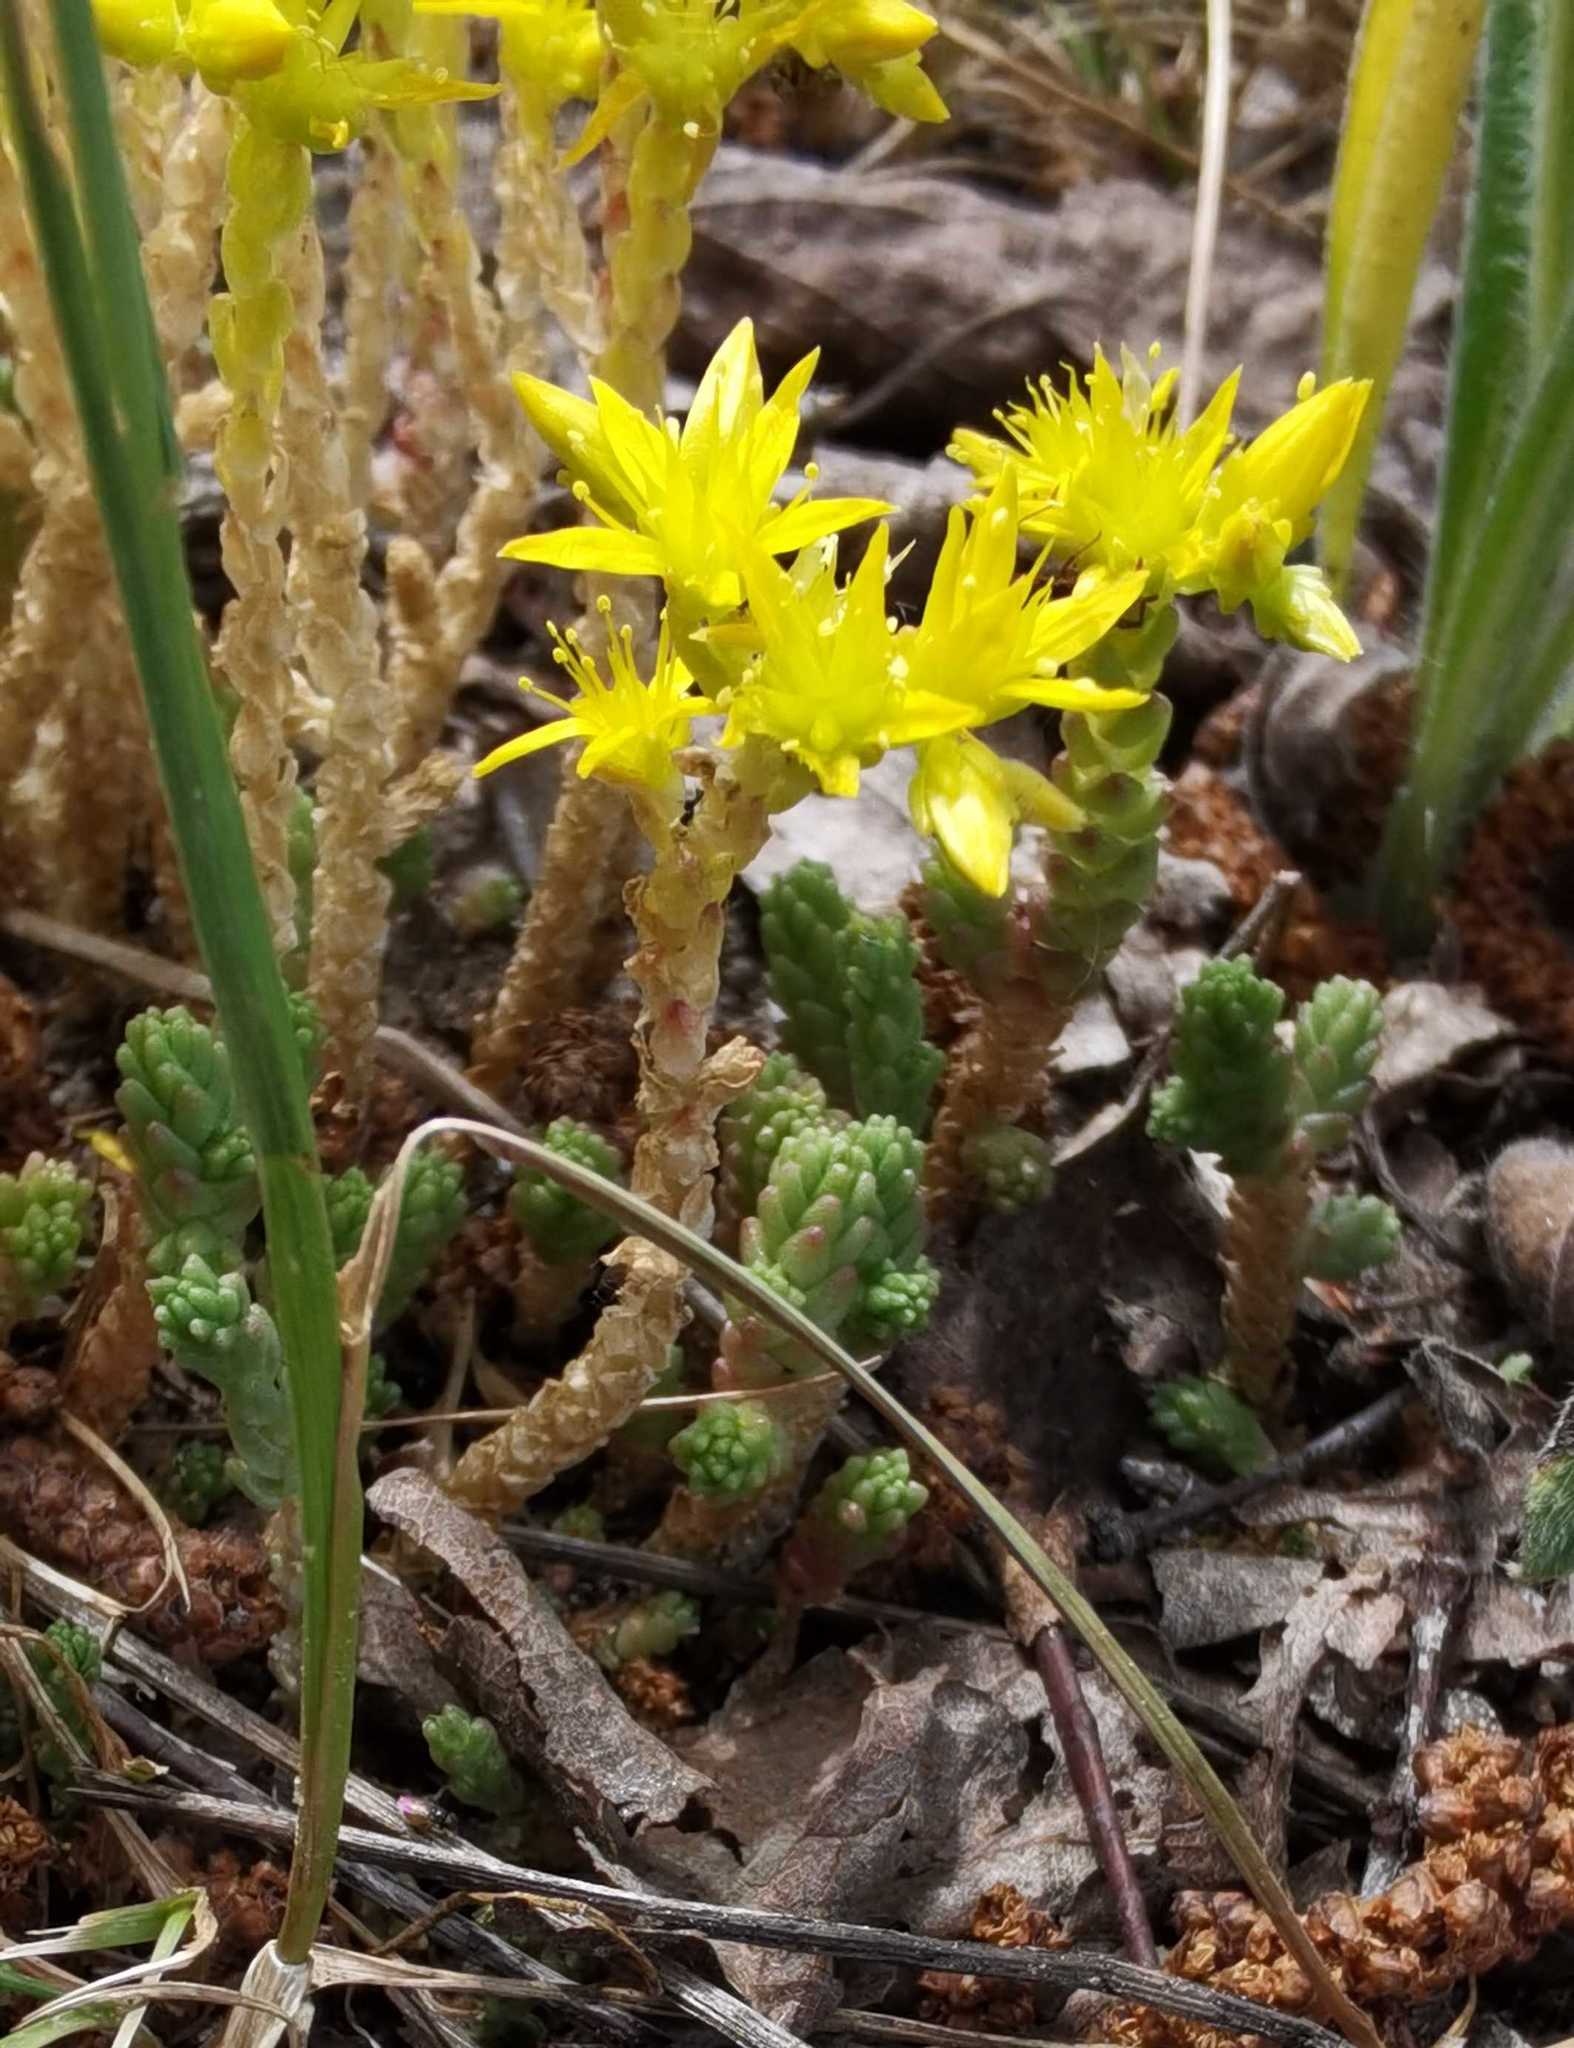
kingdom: Plantae
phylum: Tracheophyta
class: Magnoliopsida
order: Saxifragales
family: Crassulaceae
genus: Sedum
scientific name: Sedum acre
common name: Biting stonecrop
